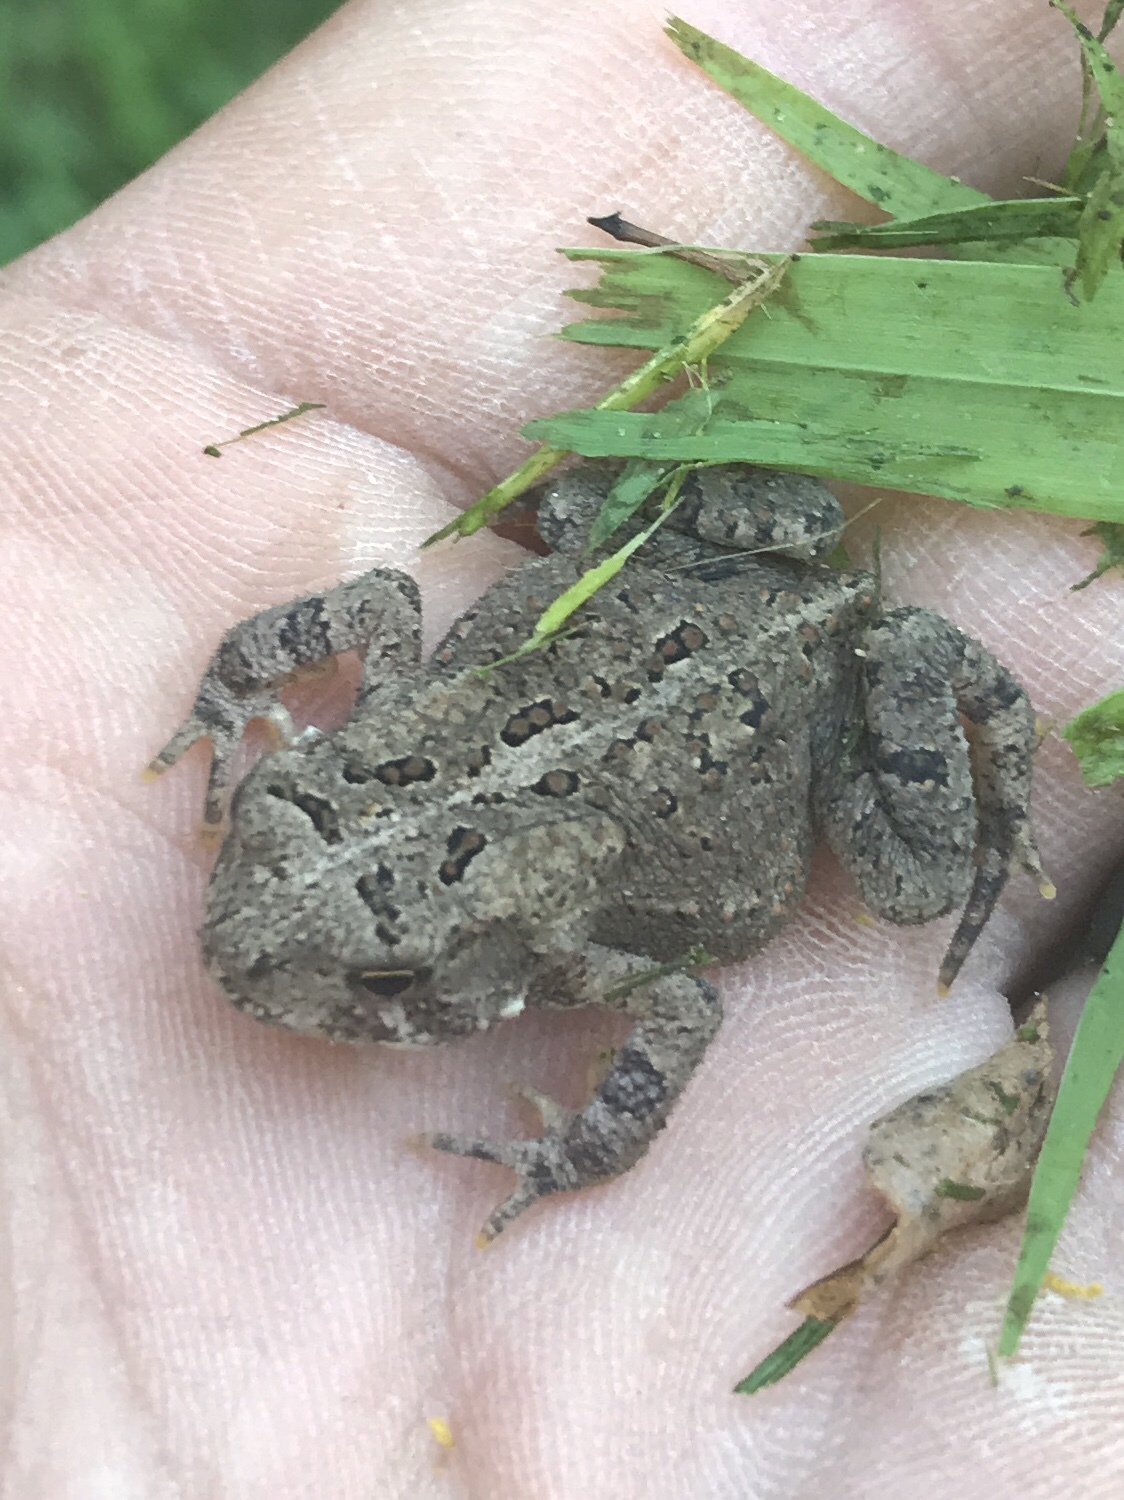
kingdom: Animalia
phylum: Chordata
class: Amphibia
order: Anura
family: Bufonidae
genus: Anaxyrus
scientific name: Anaxyrus americanus
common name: American toad
